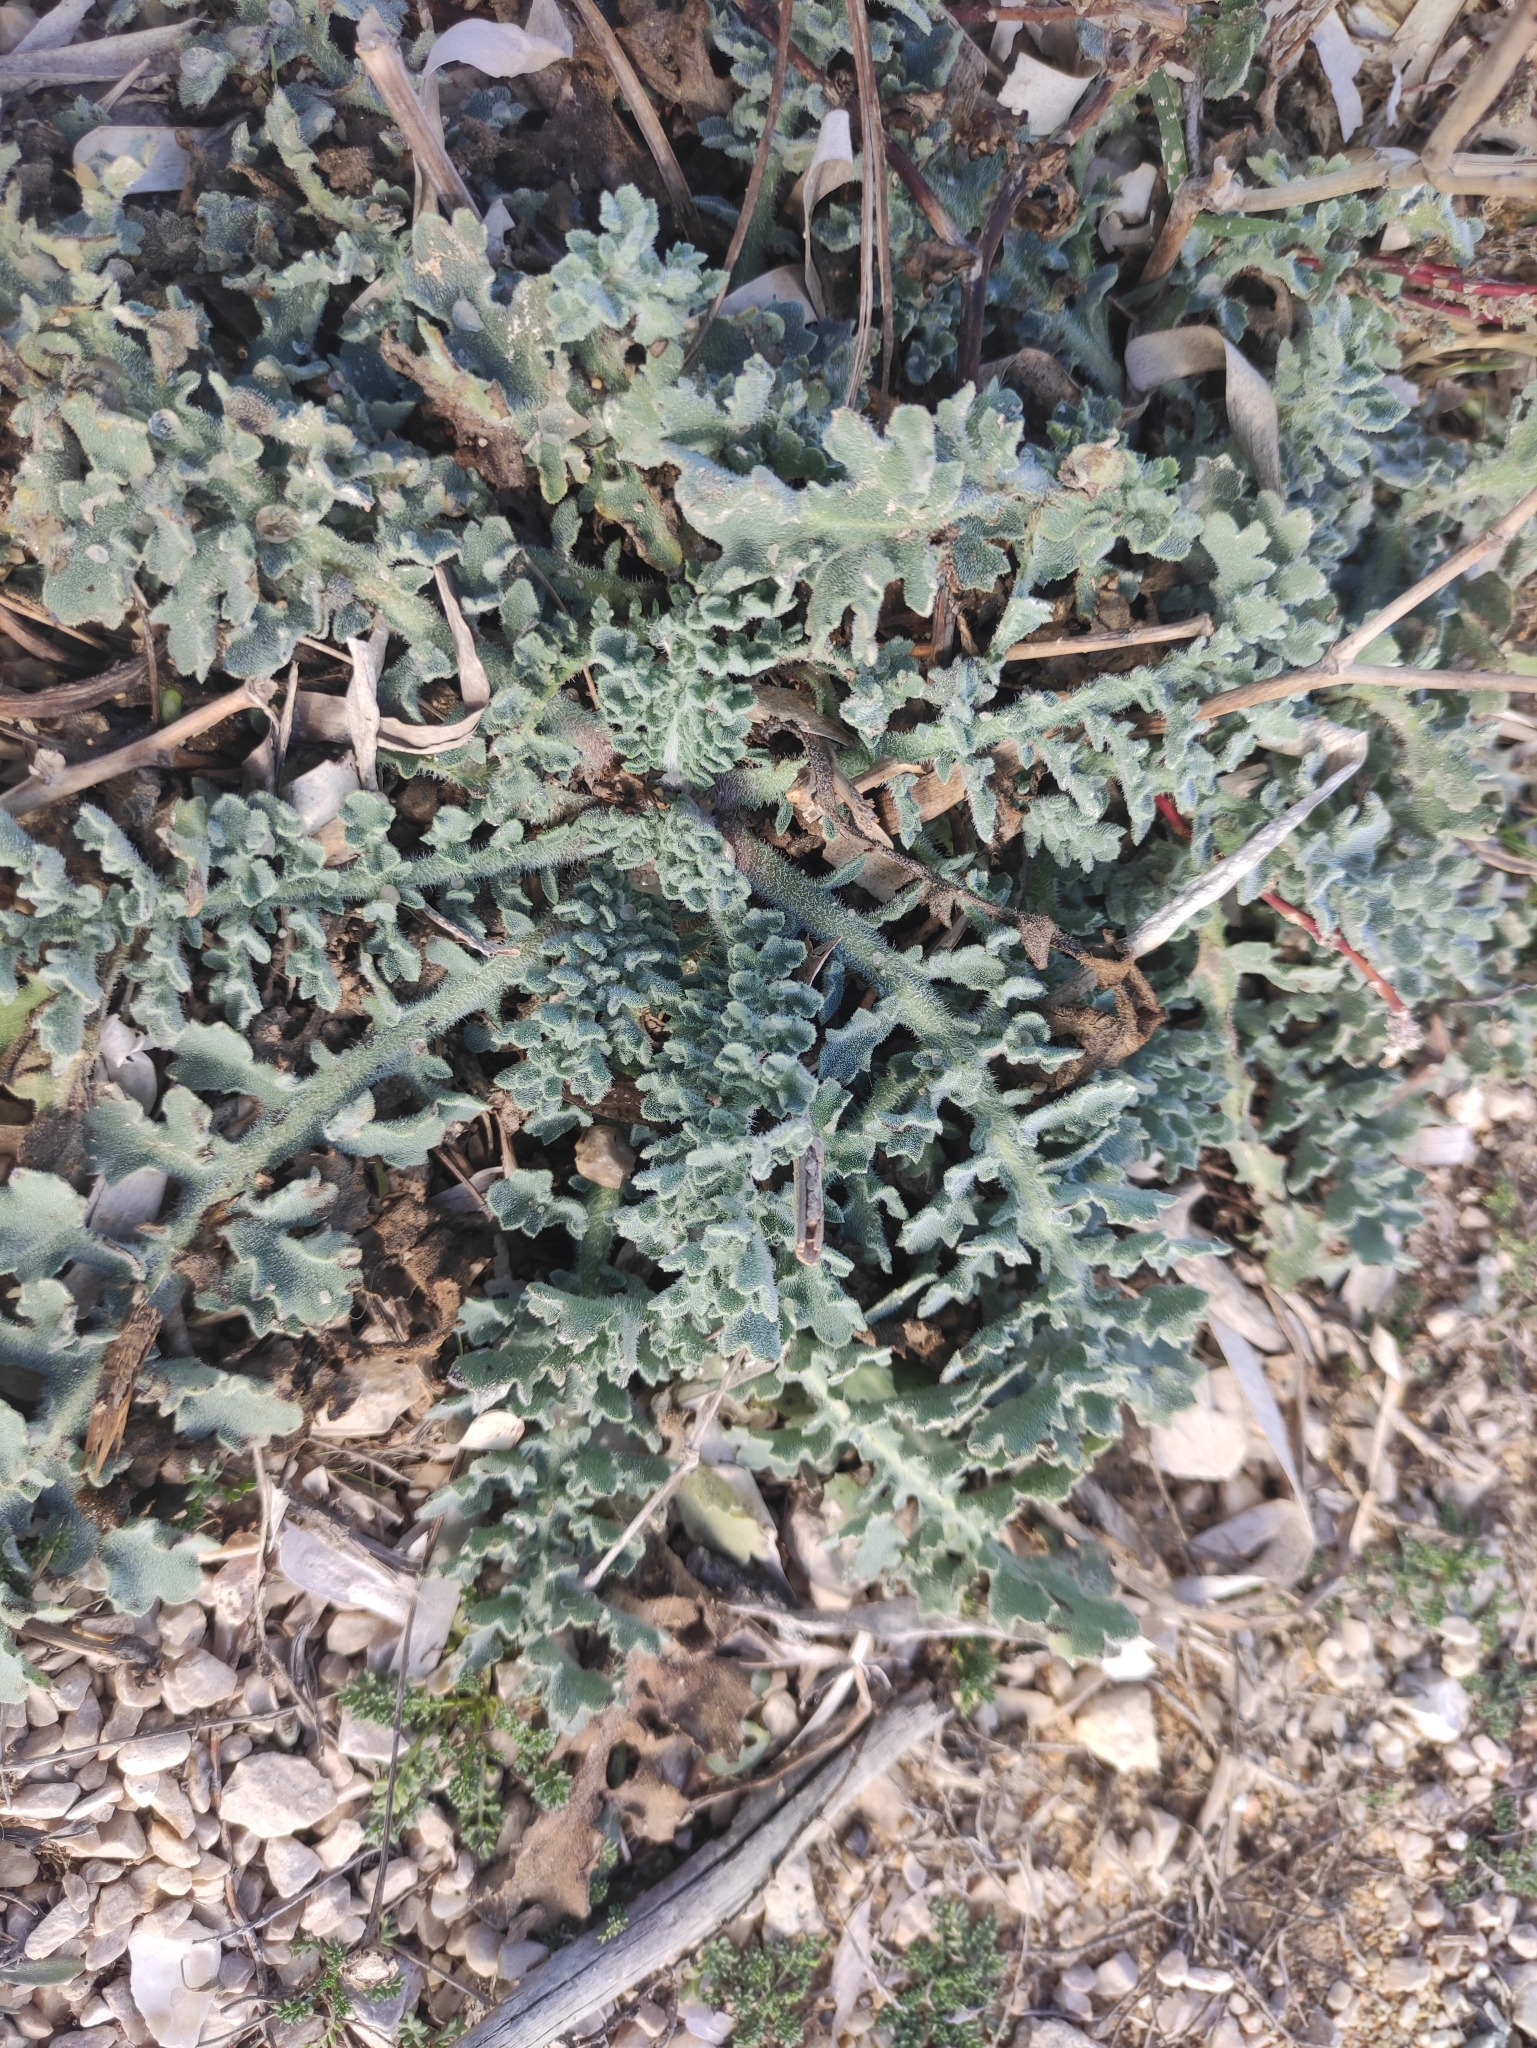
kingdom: Plantae
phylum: Tracheophyta
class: Magnoliopsida
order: Ranunculales
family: Papaveraceae
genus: Glaucium
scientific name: Glaucium flavum
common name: Yellow horned-poppy
